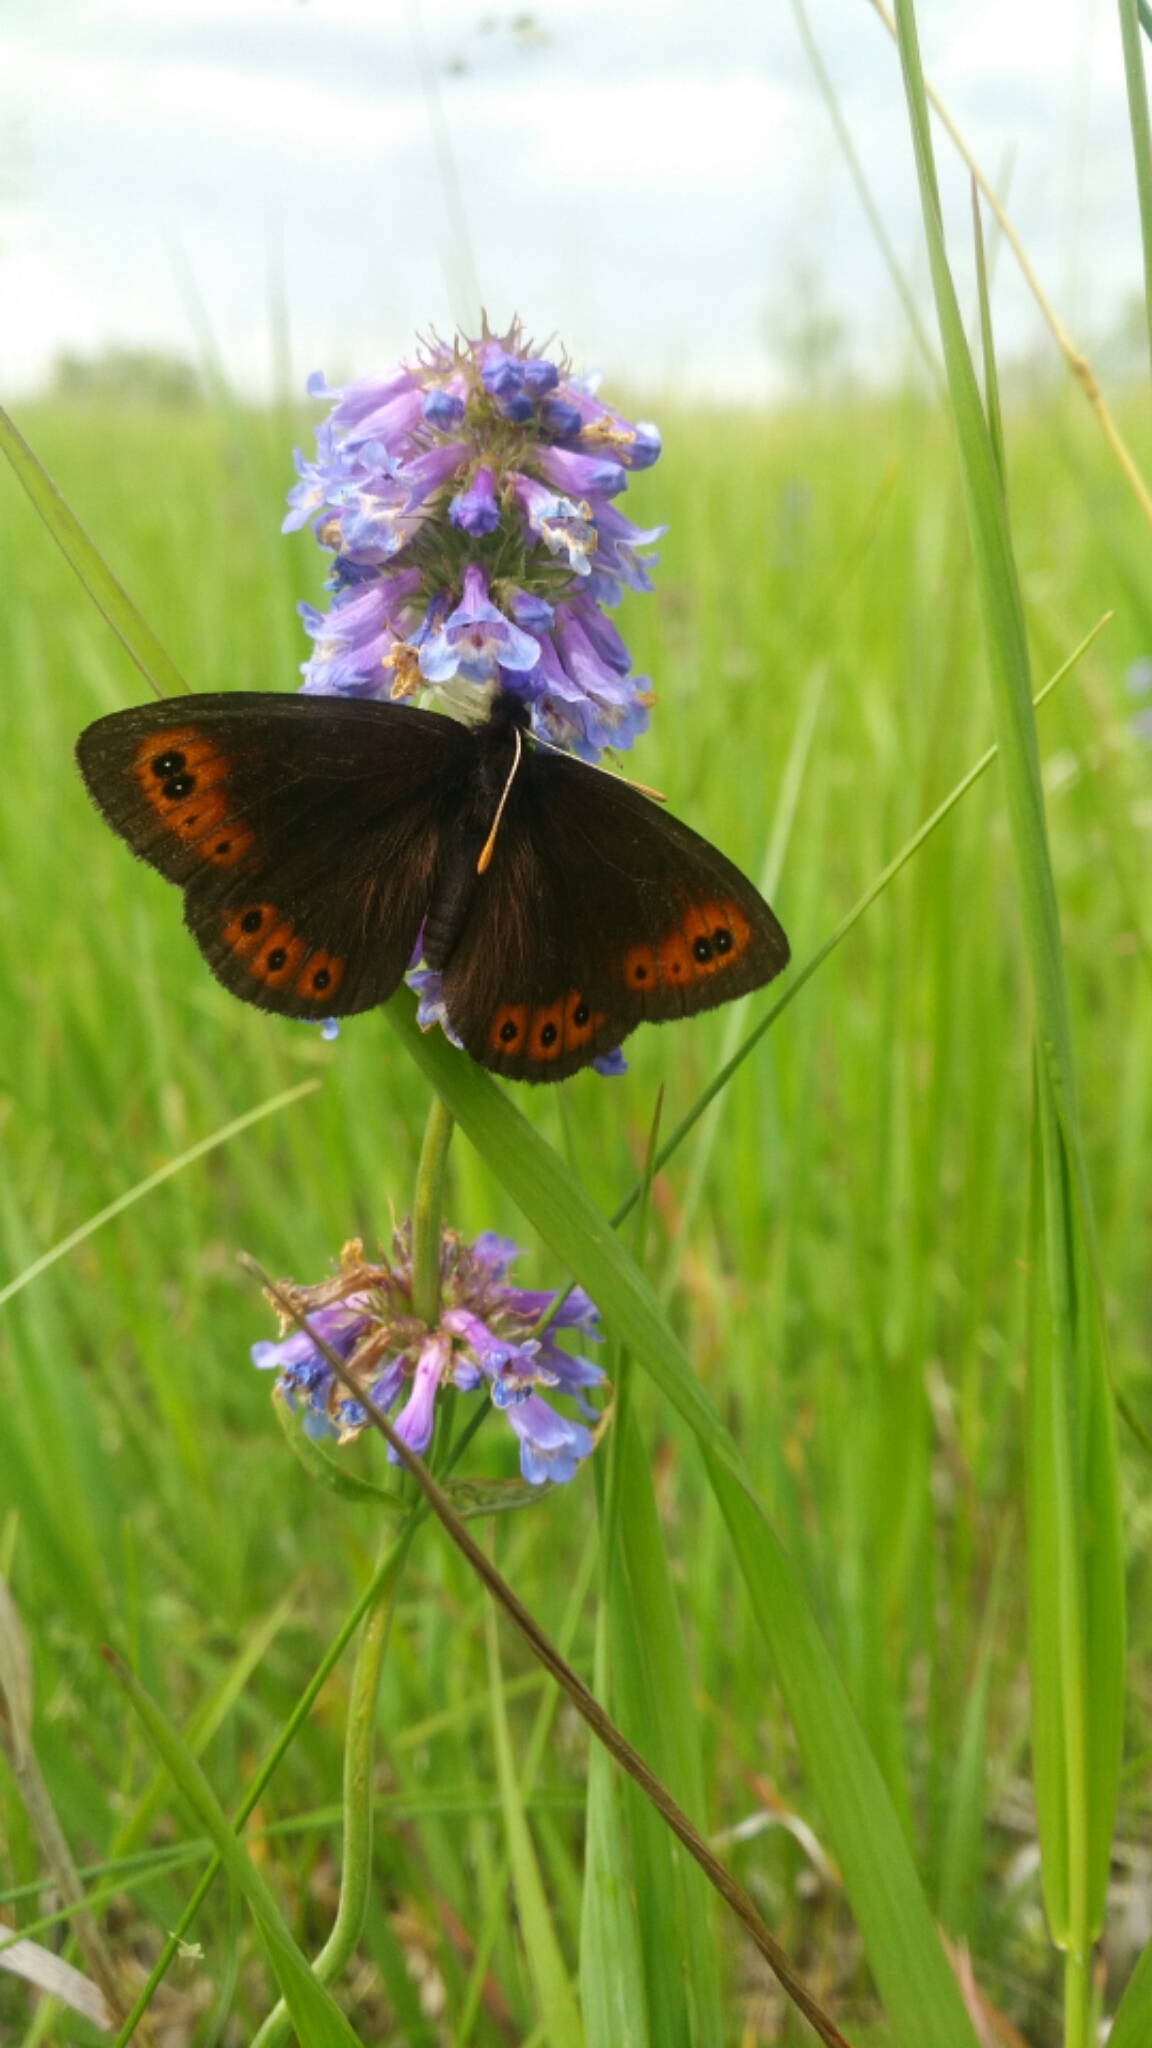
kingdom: Animalia
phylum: Arthropoda
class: Insecta
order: Lepidoptera
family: Nymphalidae
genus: Erebia
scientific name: Erebia epipsodea
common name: Common alpine
